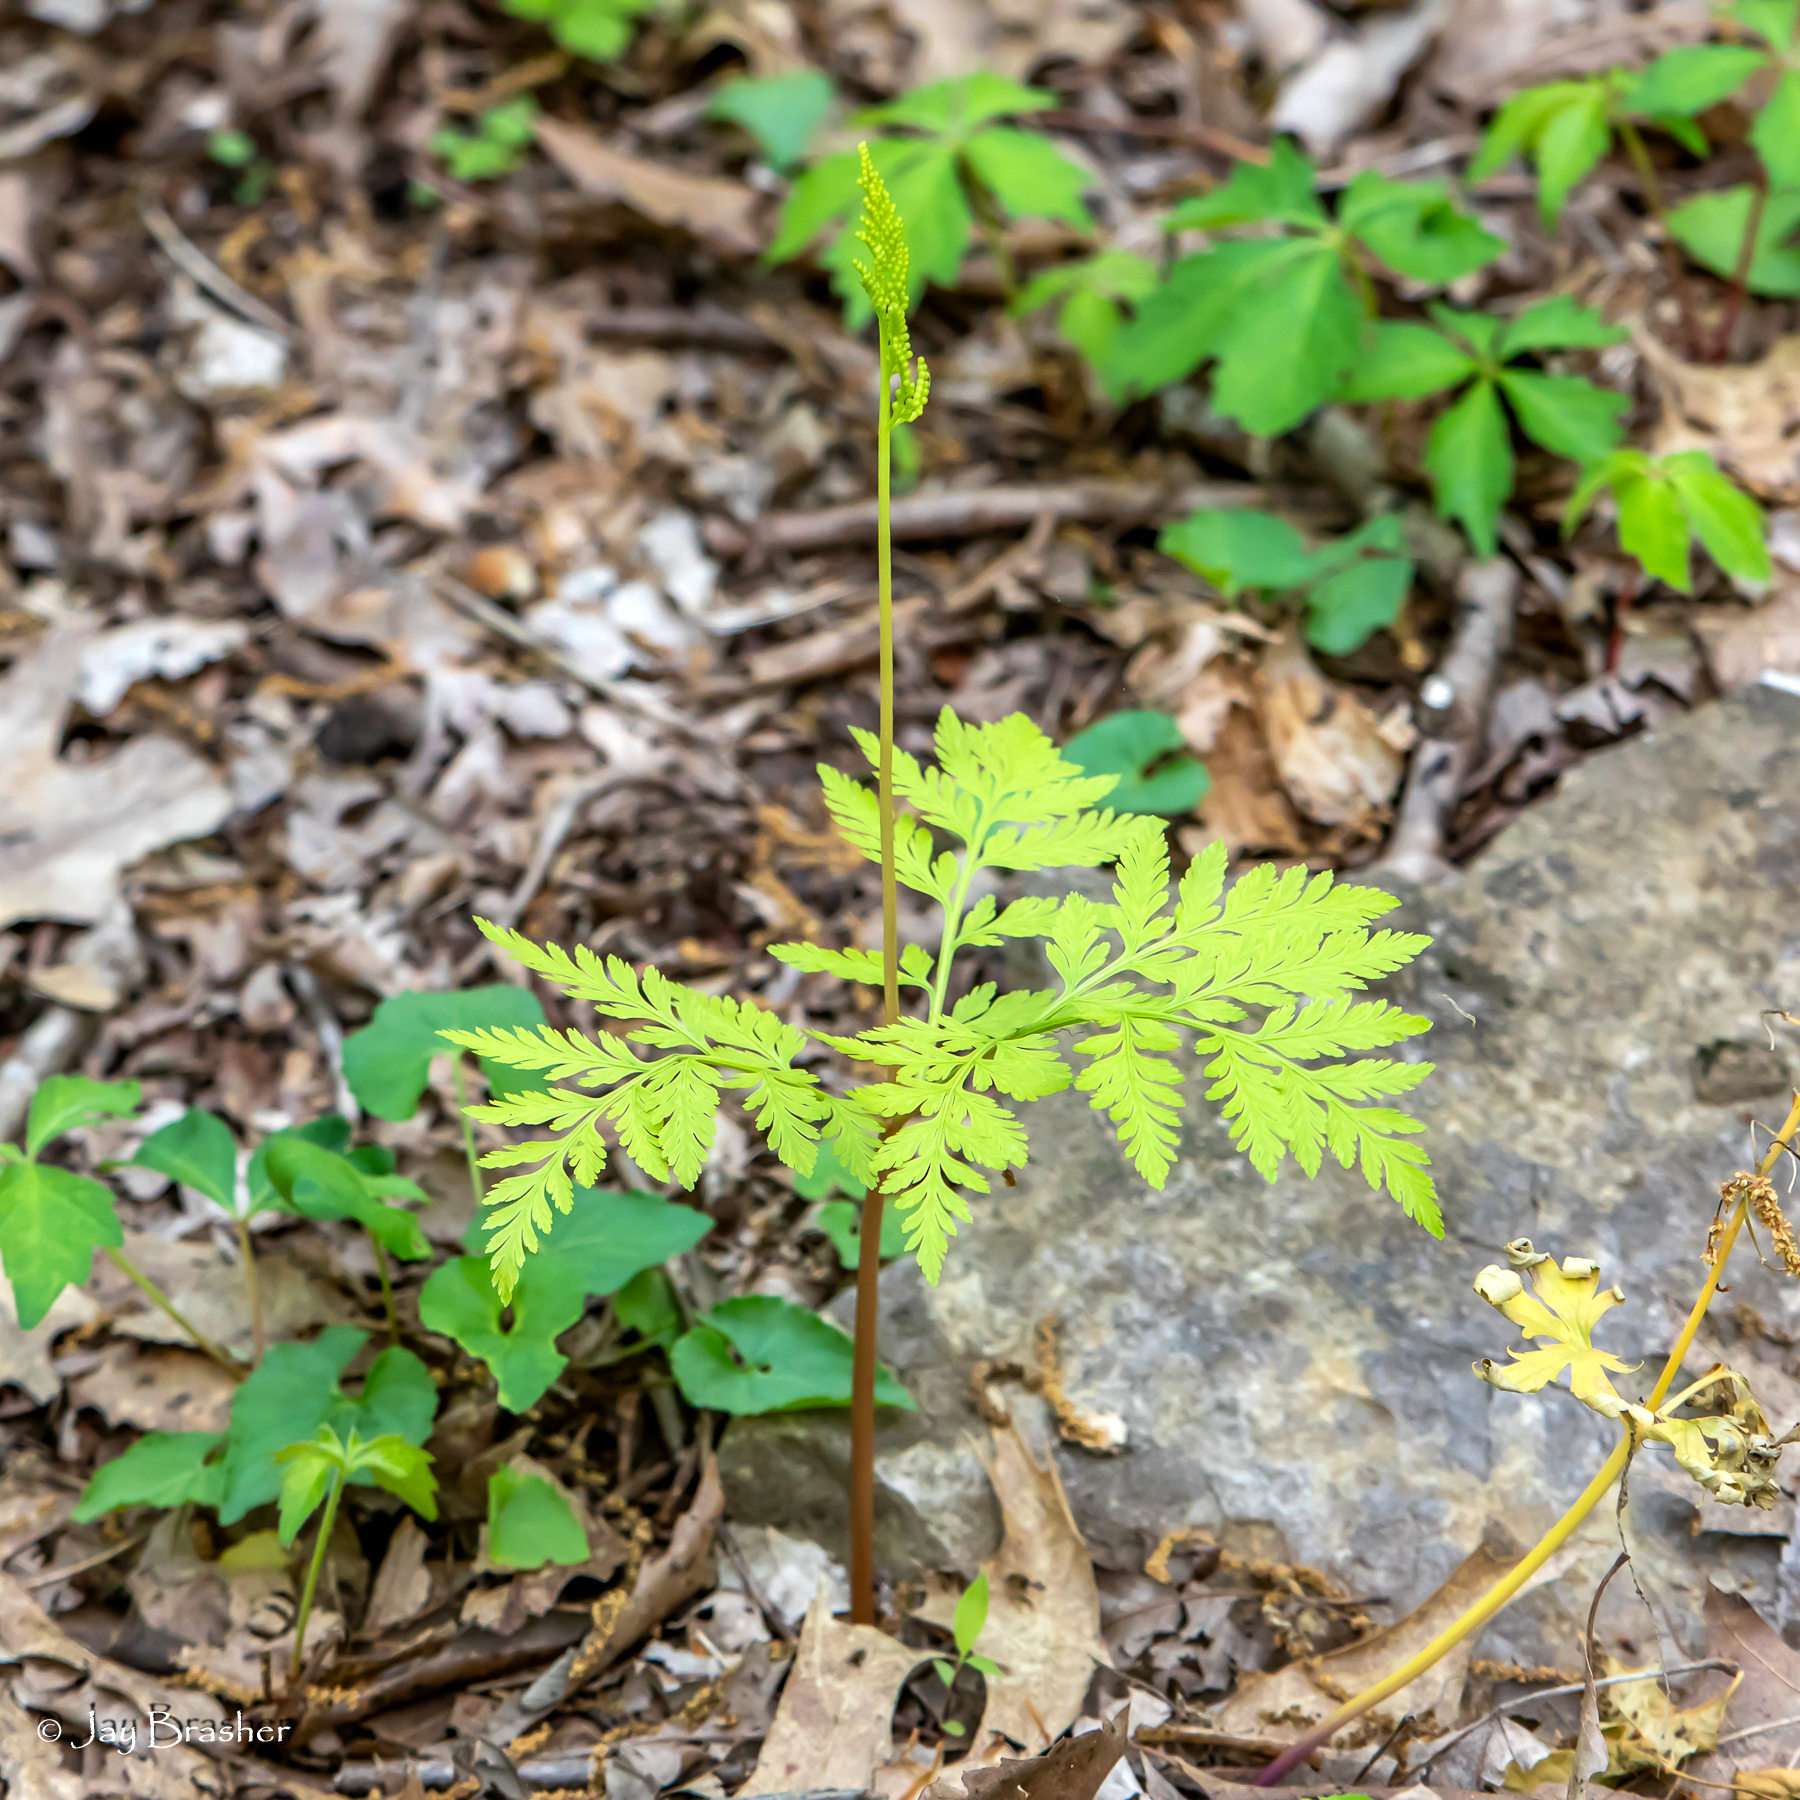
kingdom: Plantae
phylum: Tracheophyta
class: Polypodiopsida
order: Ophioglossales
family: Ophioglossaceae
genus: Botrypus
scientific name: Botrypus virginianus
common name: Common grapefern
